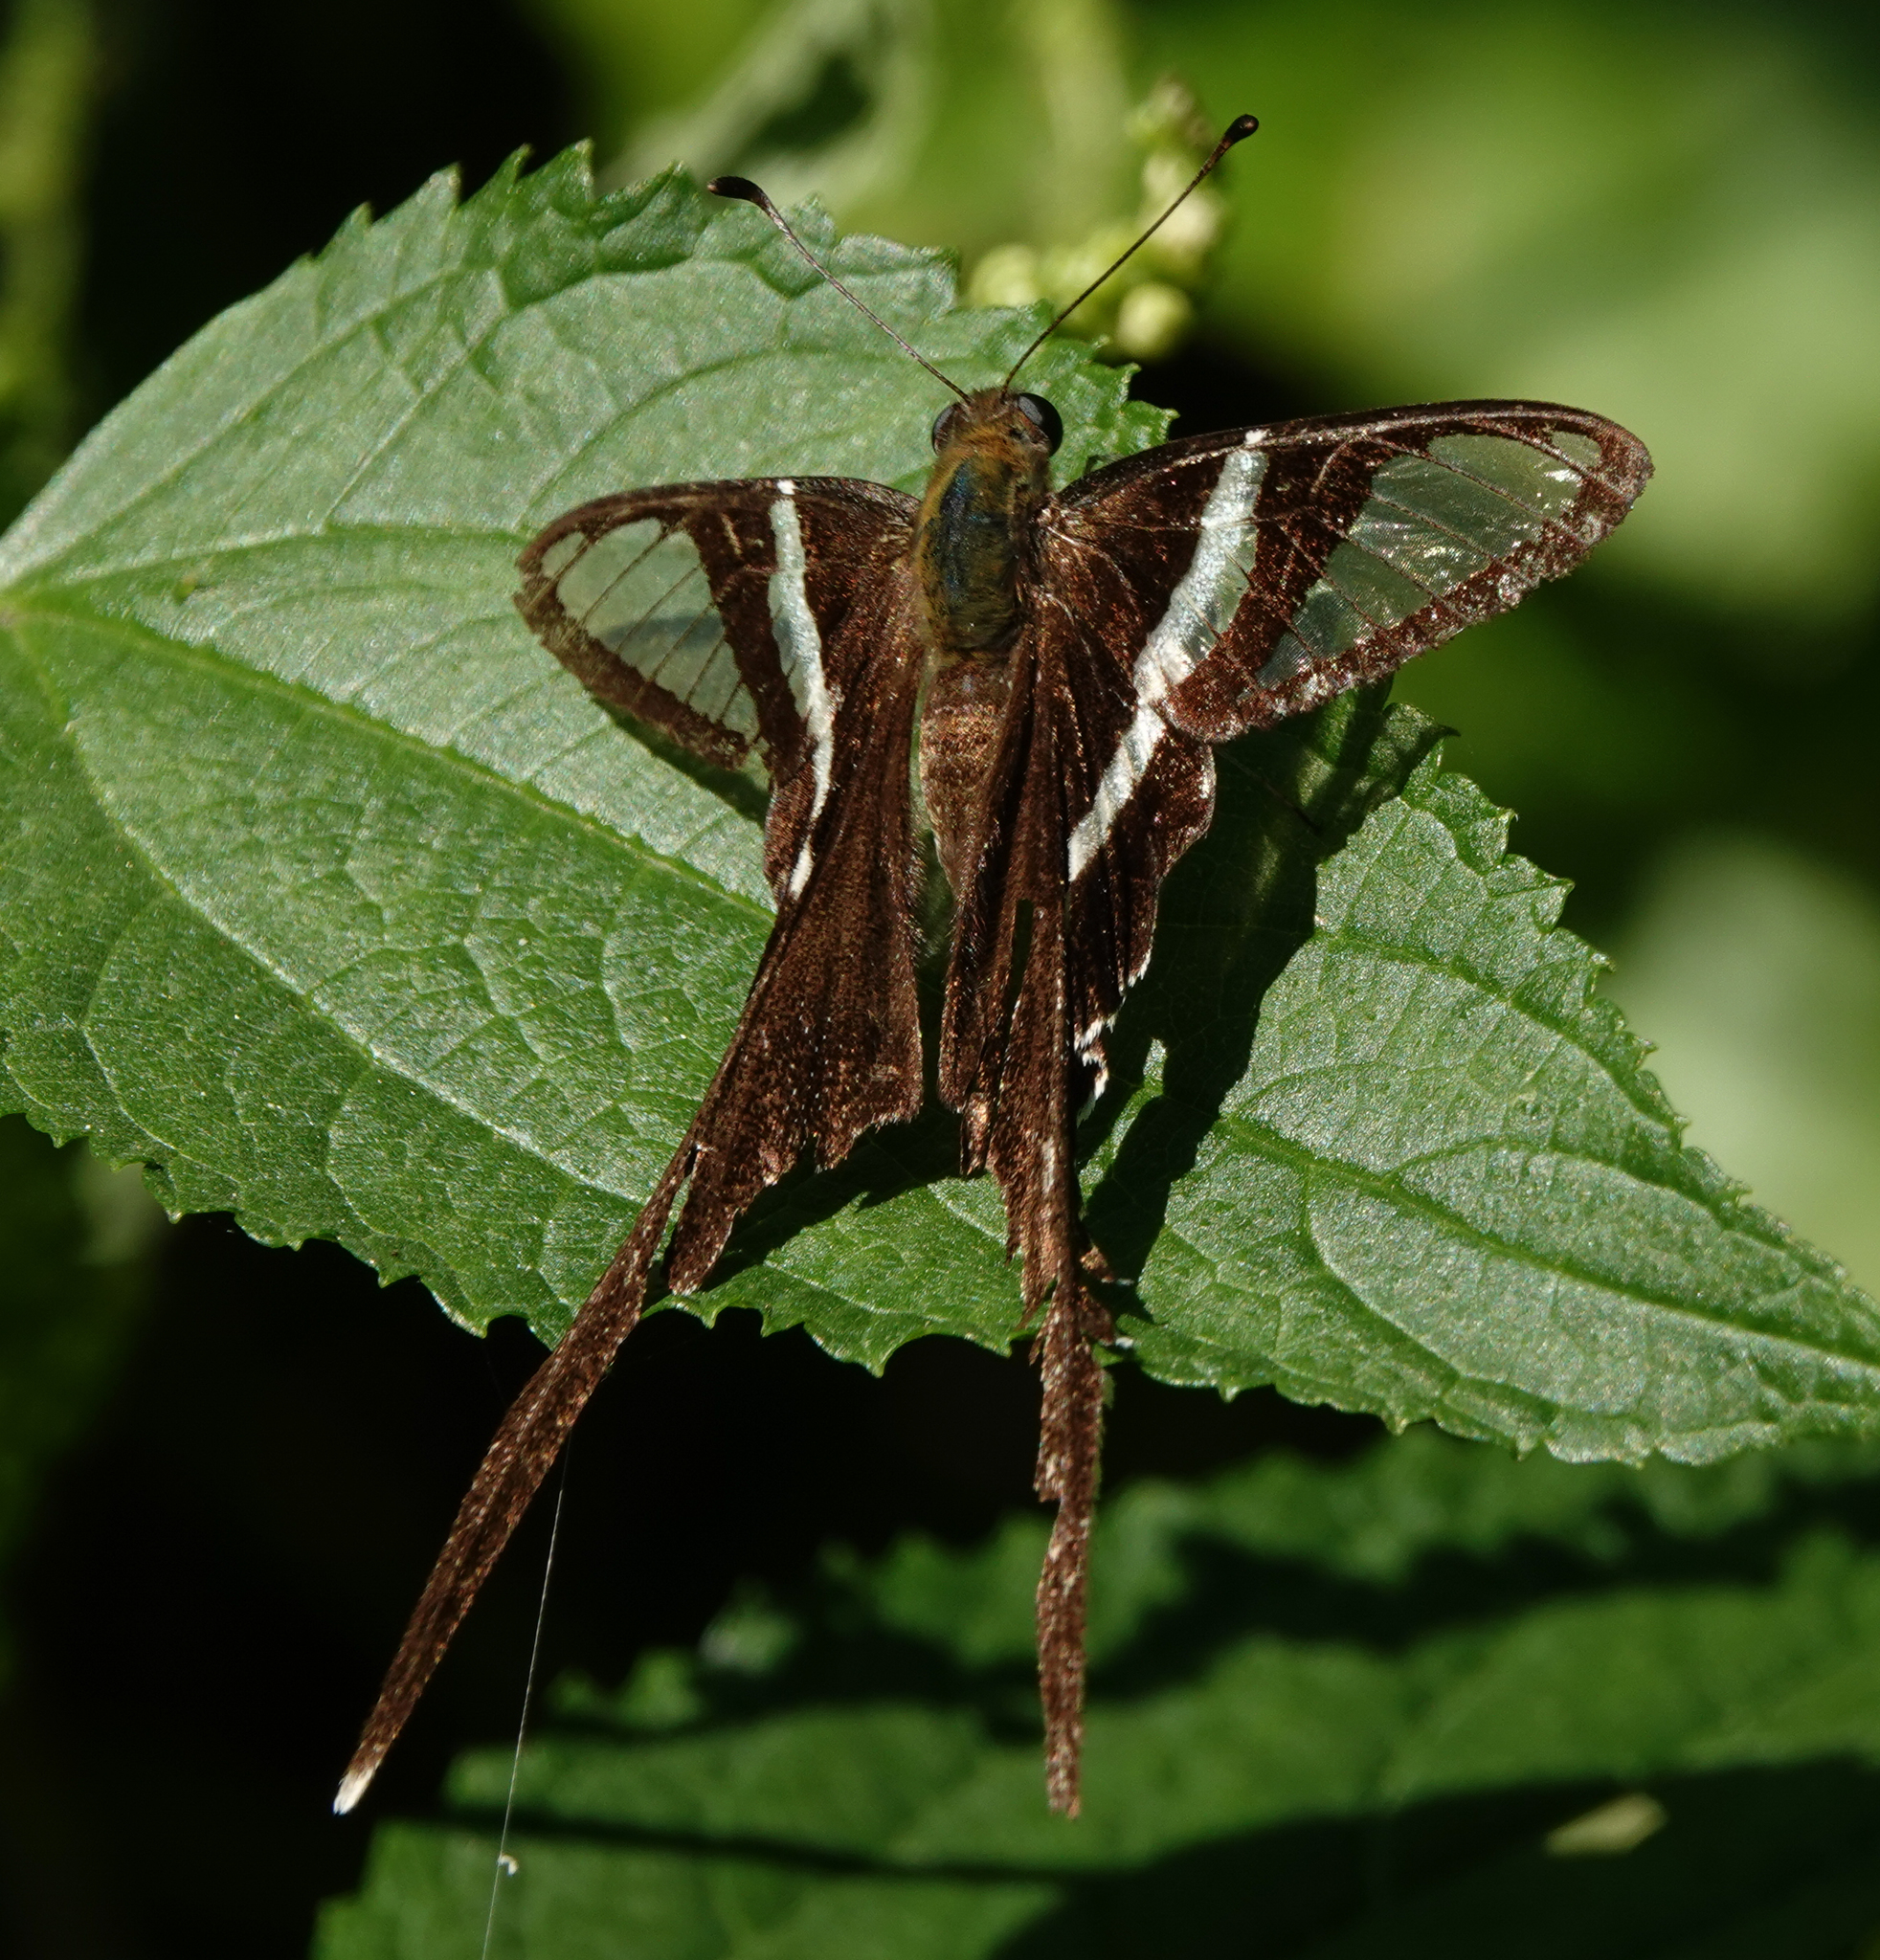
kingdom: Animalia
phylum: Arthropoda
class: Insecta
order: Lepidoptera
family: Papilionidae
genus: Lamproptera
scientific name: Lamproptera curius
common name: White dragontail
